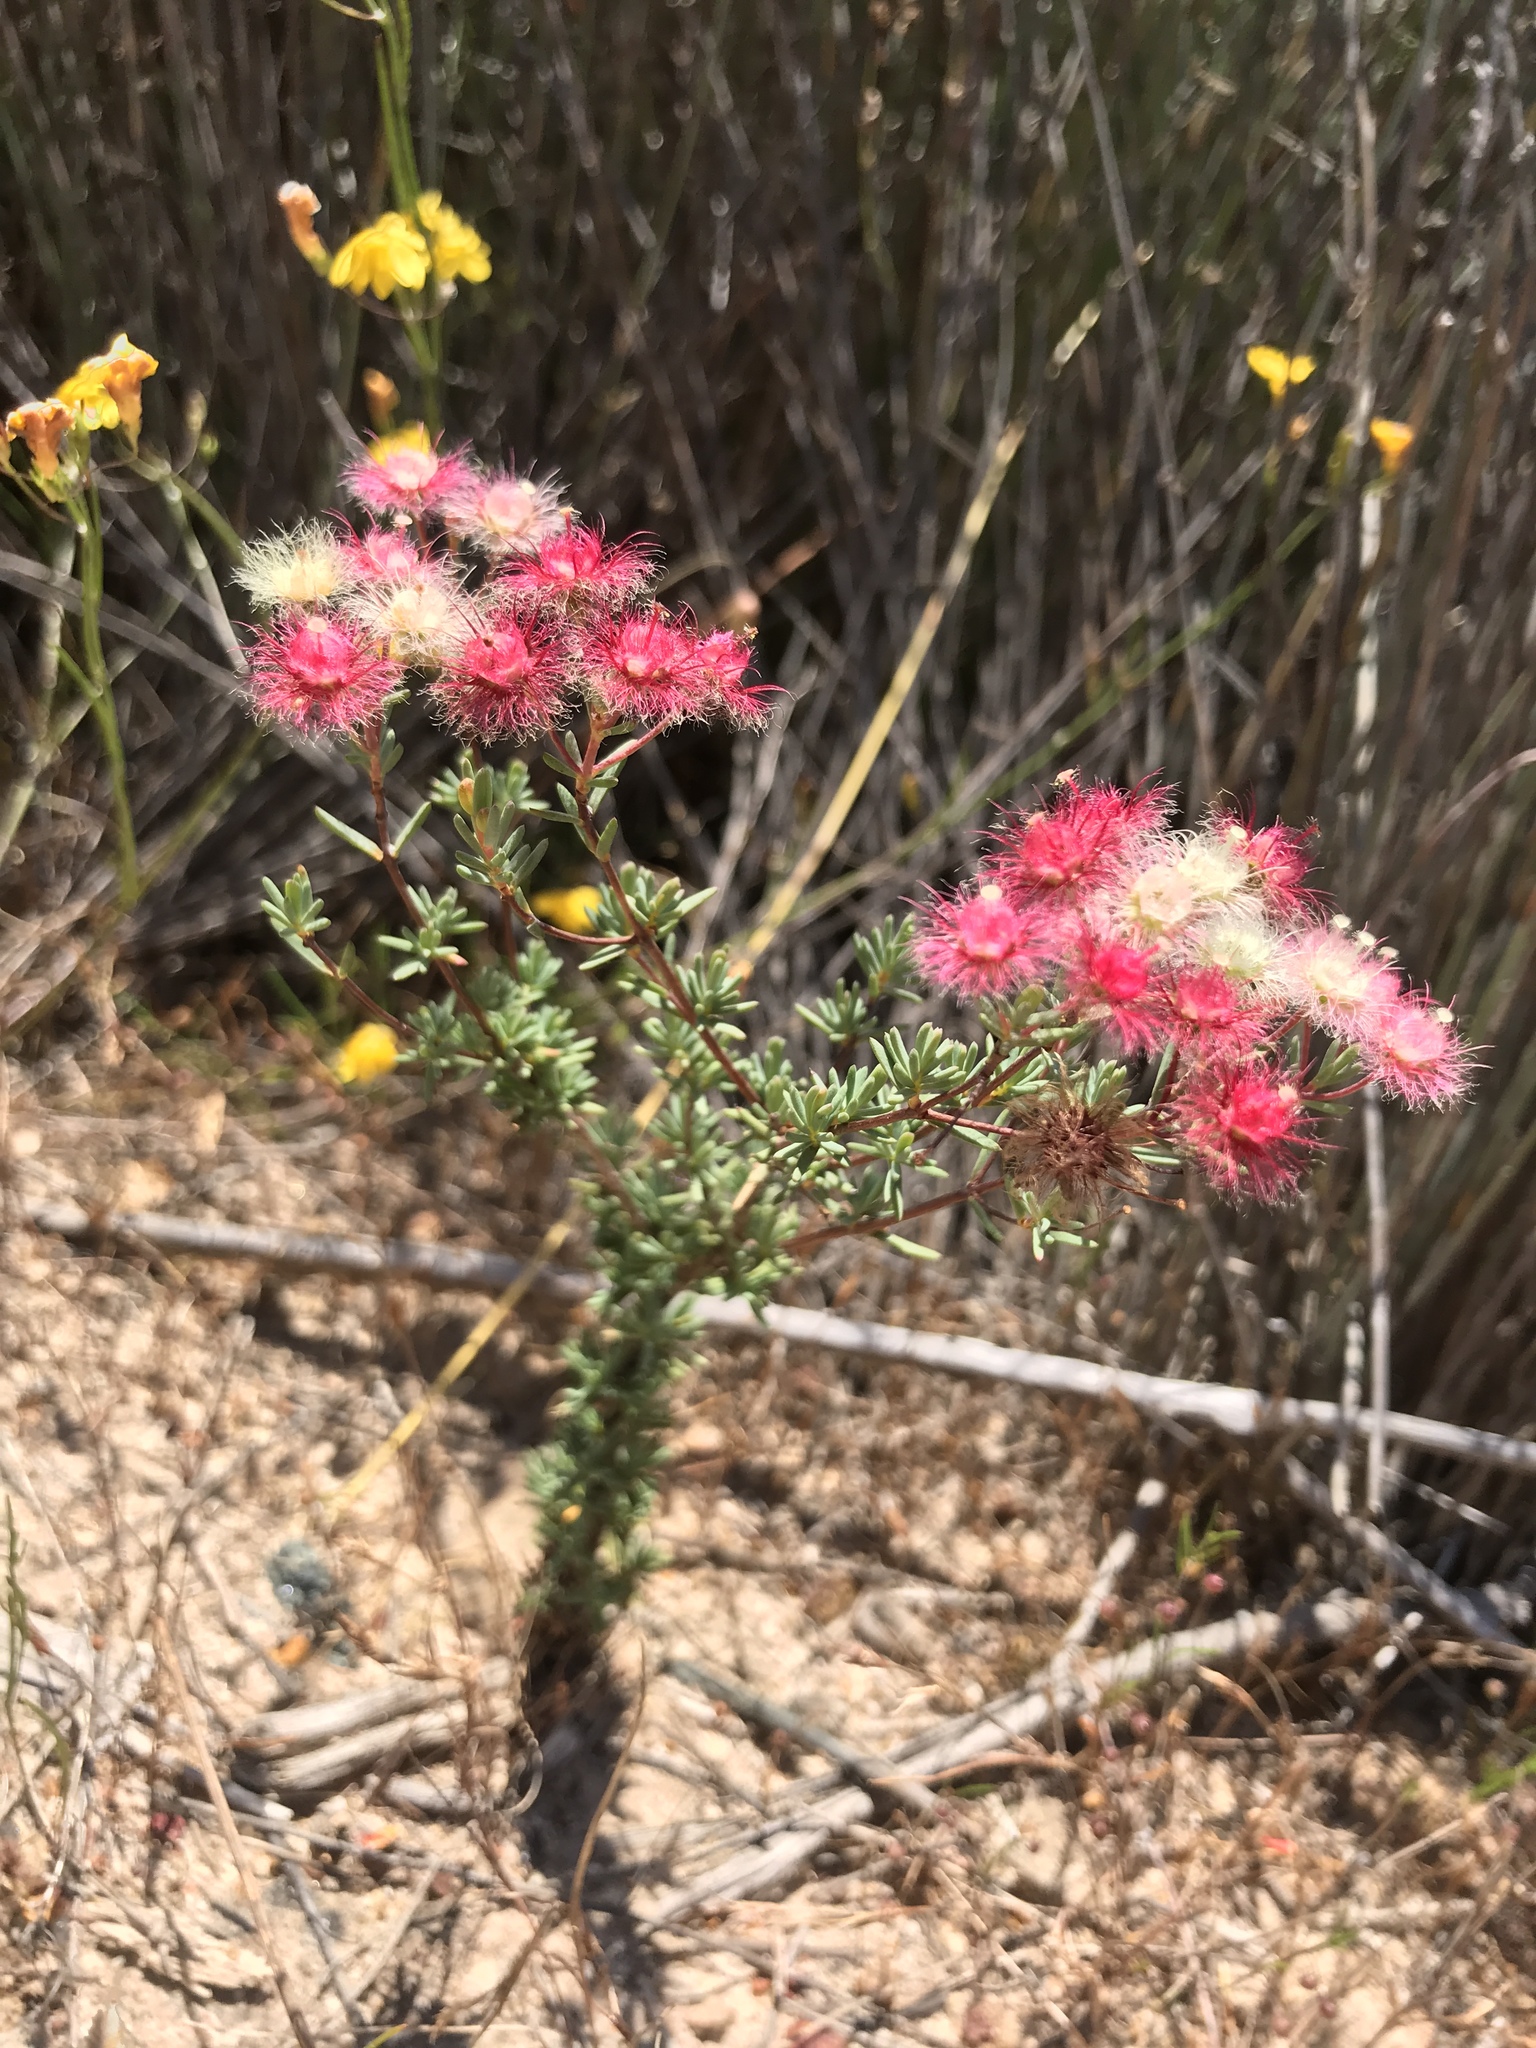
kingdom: Plantae
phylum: Tracheophyta
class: Magnoliopsida
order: Myrtales
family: Myrtaceae
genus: Verticordia
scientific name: Verticordia huegelii
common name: Variegate feather-flower
